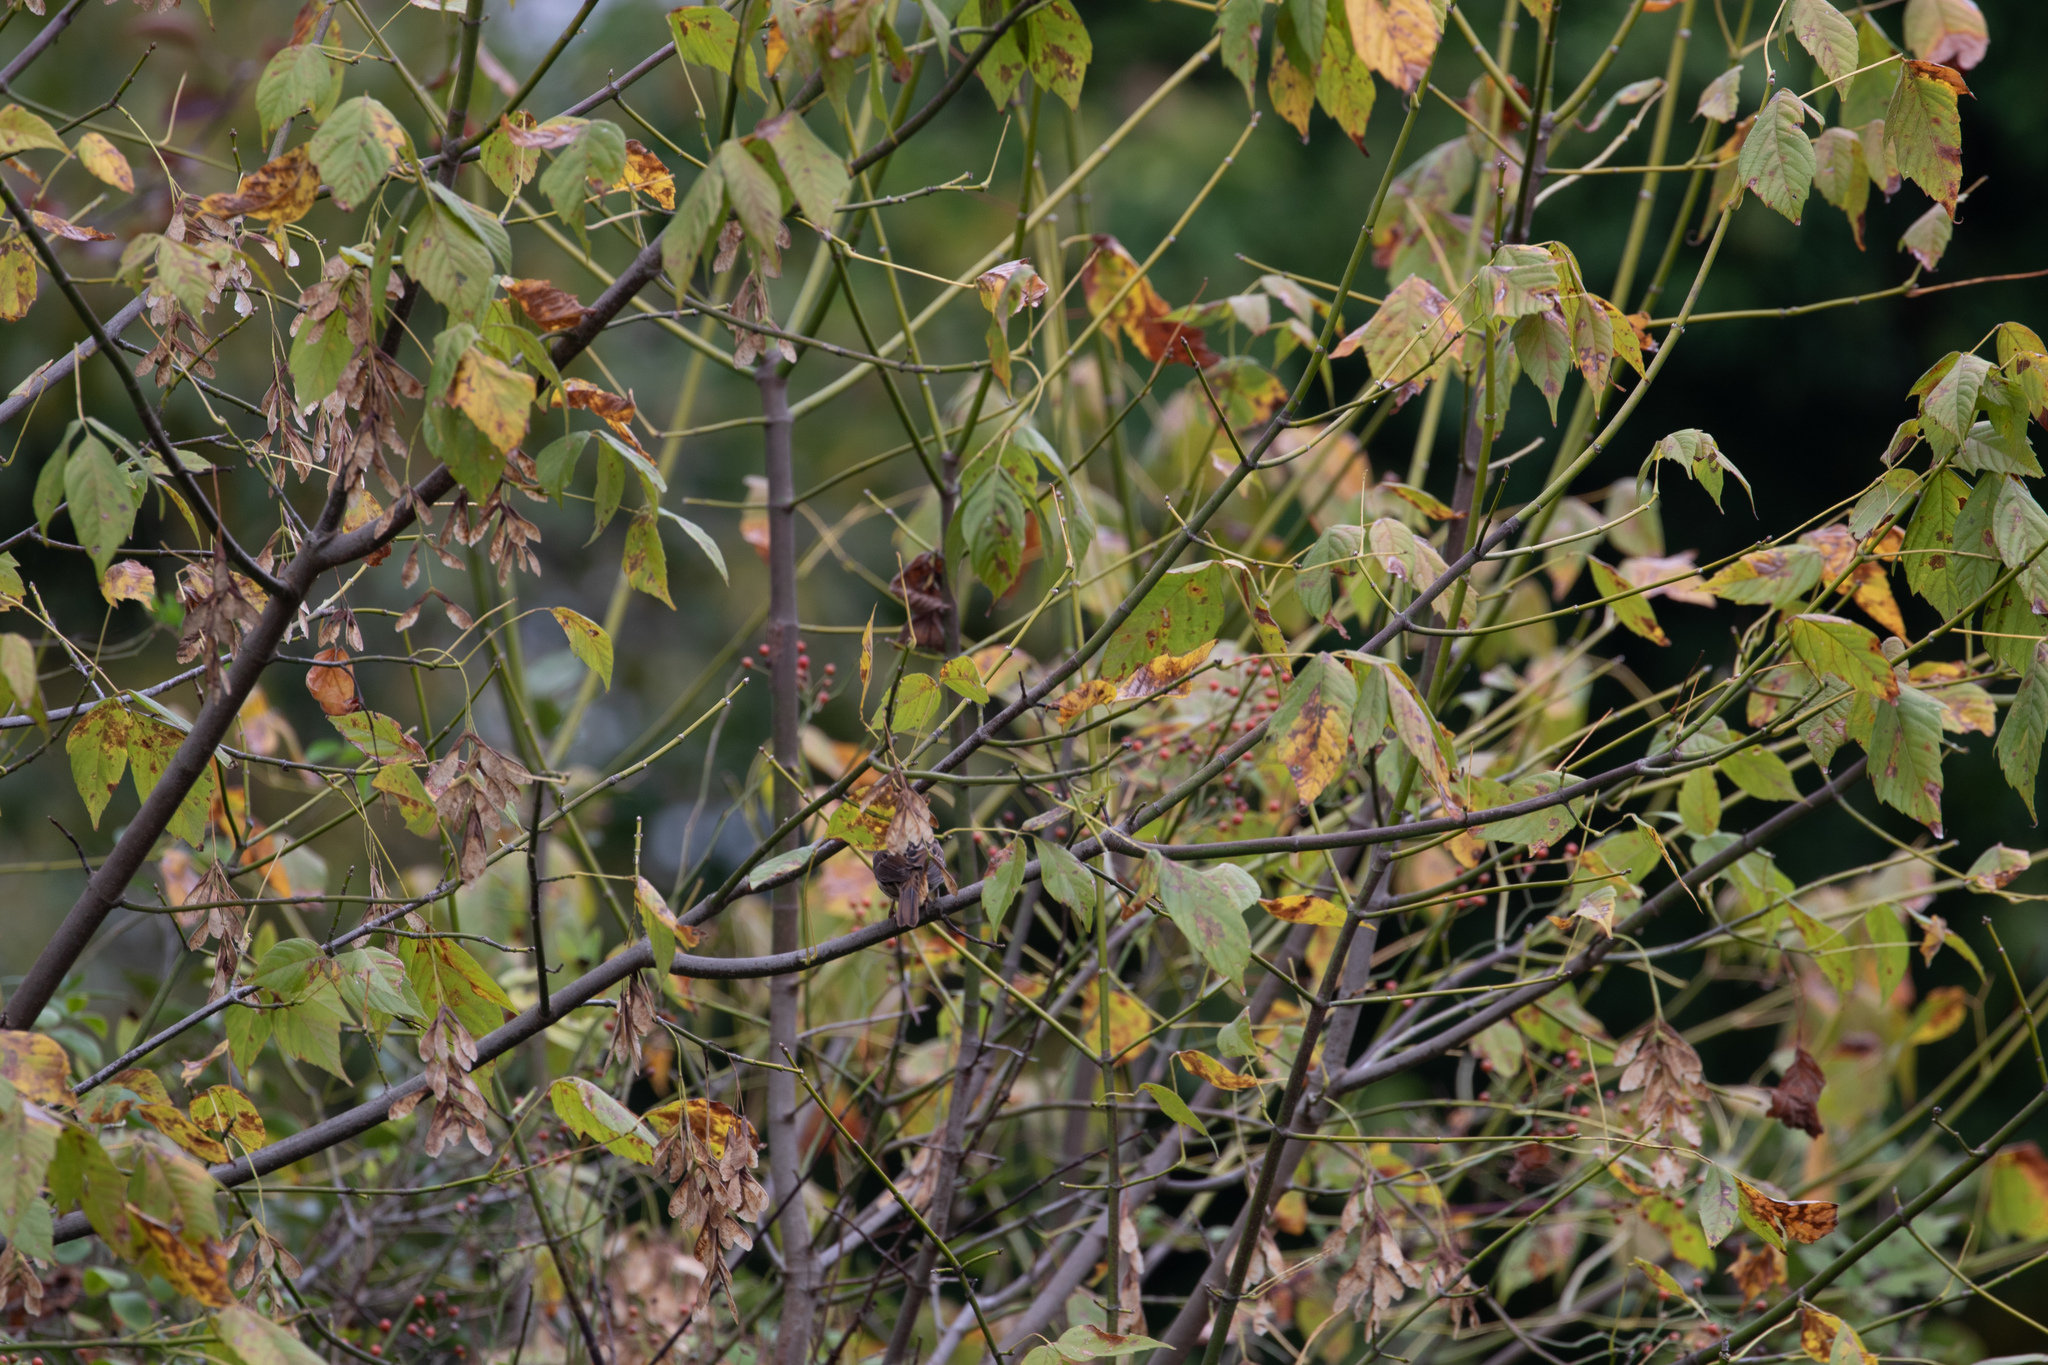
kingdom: Plantae
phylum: Tracheophyta
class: Magnoliopsida
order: Sapindales
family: Sapindaceae
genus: Acer
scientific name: Acer negundo
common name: Ashleaf maple
